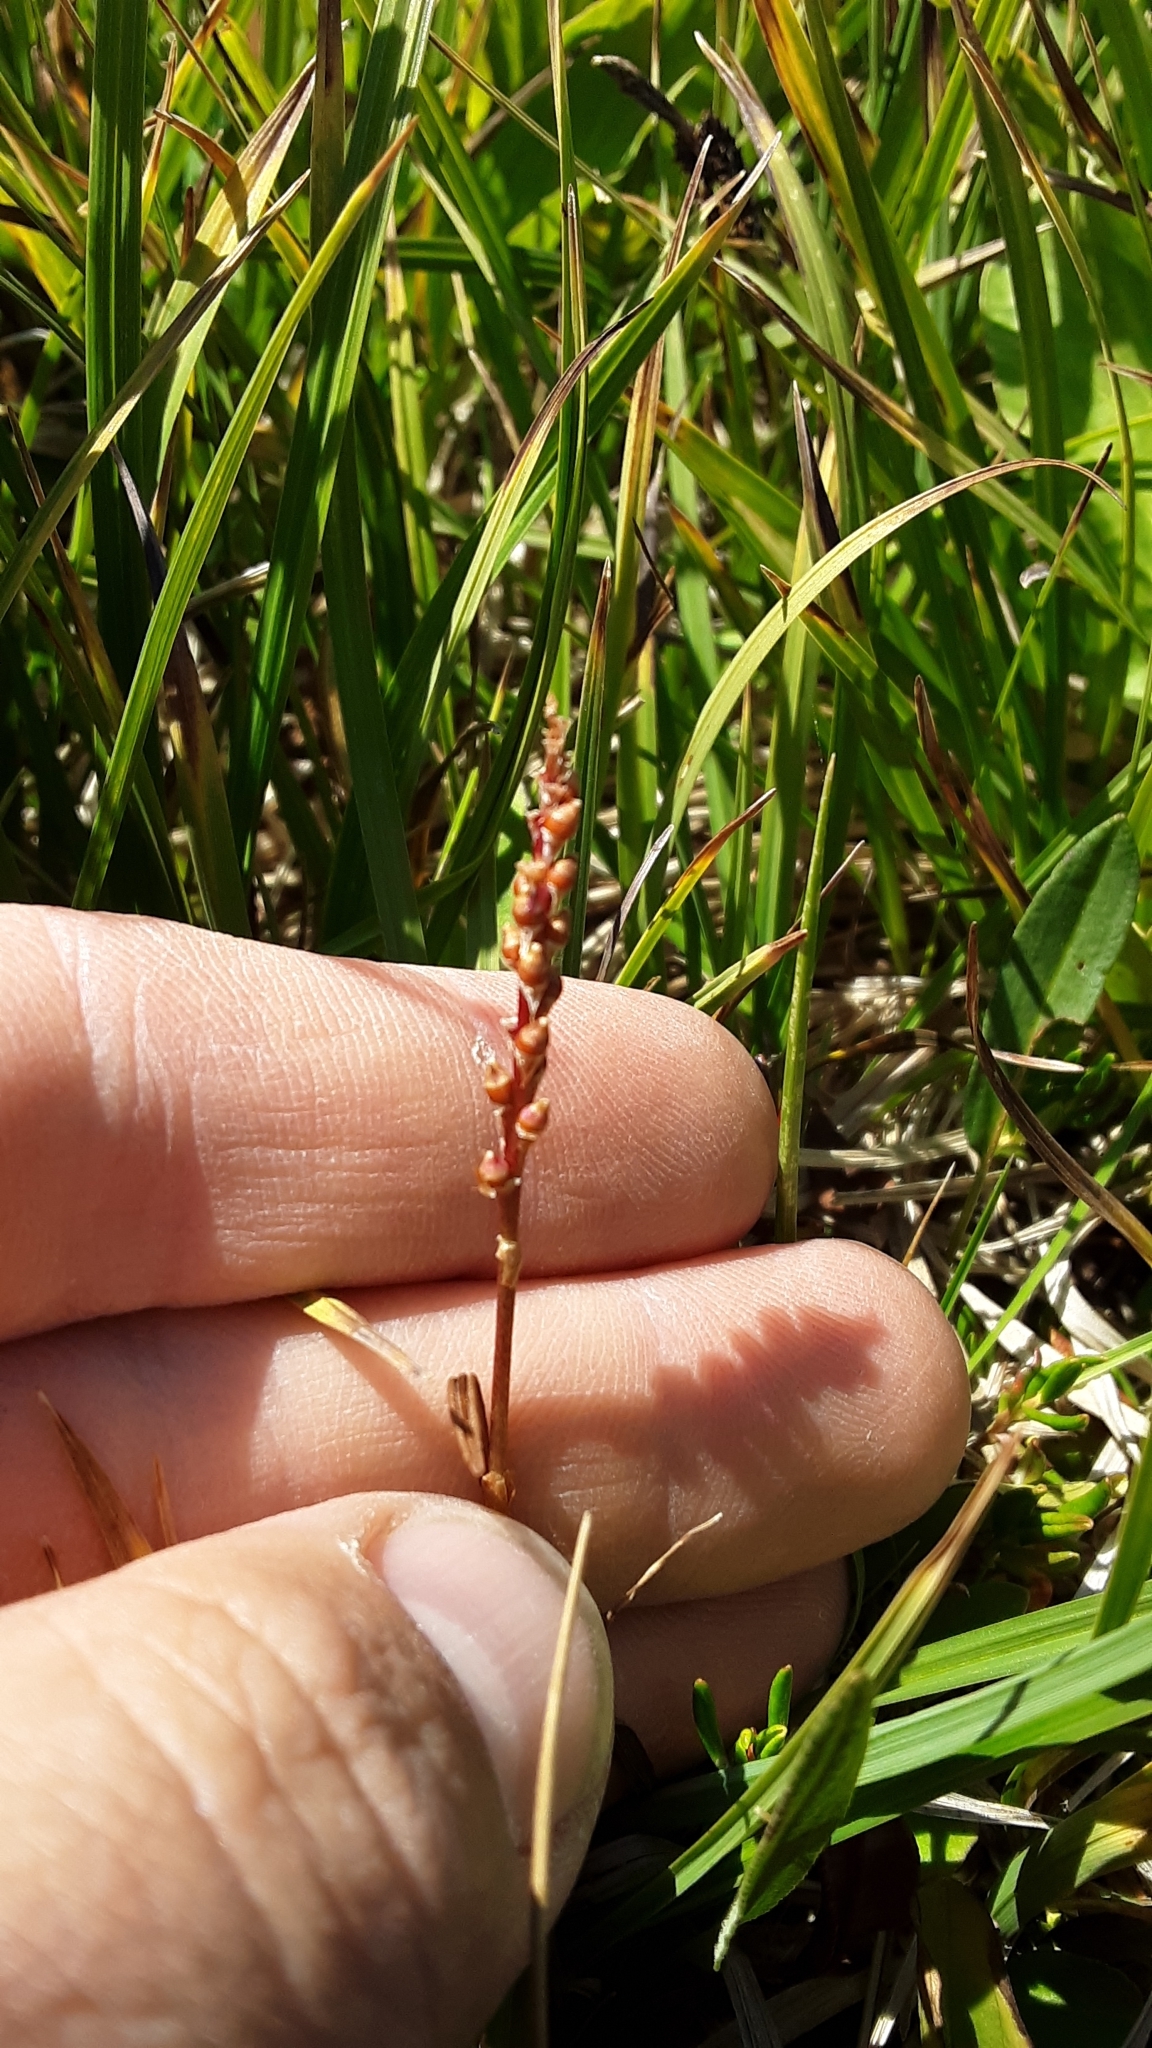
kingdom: Plantae
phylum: Tracheophyta
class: Magnoliopsida
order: Caryophyllales
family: Polygonaceae
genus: Bistorta
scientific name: Bistorta vivipara
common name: Alpine bistort
